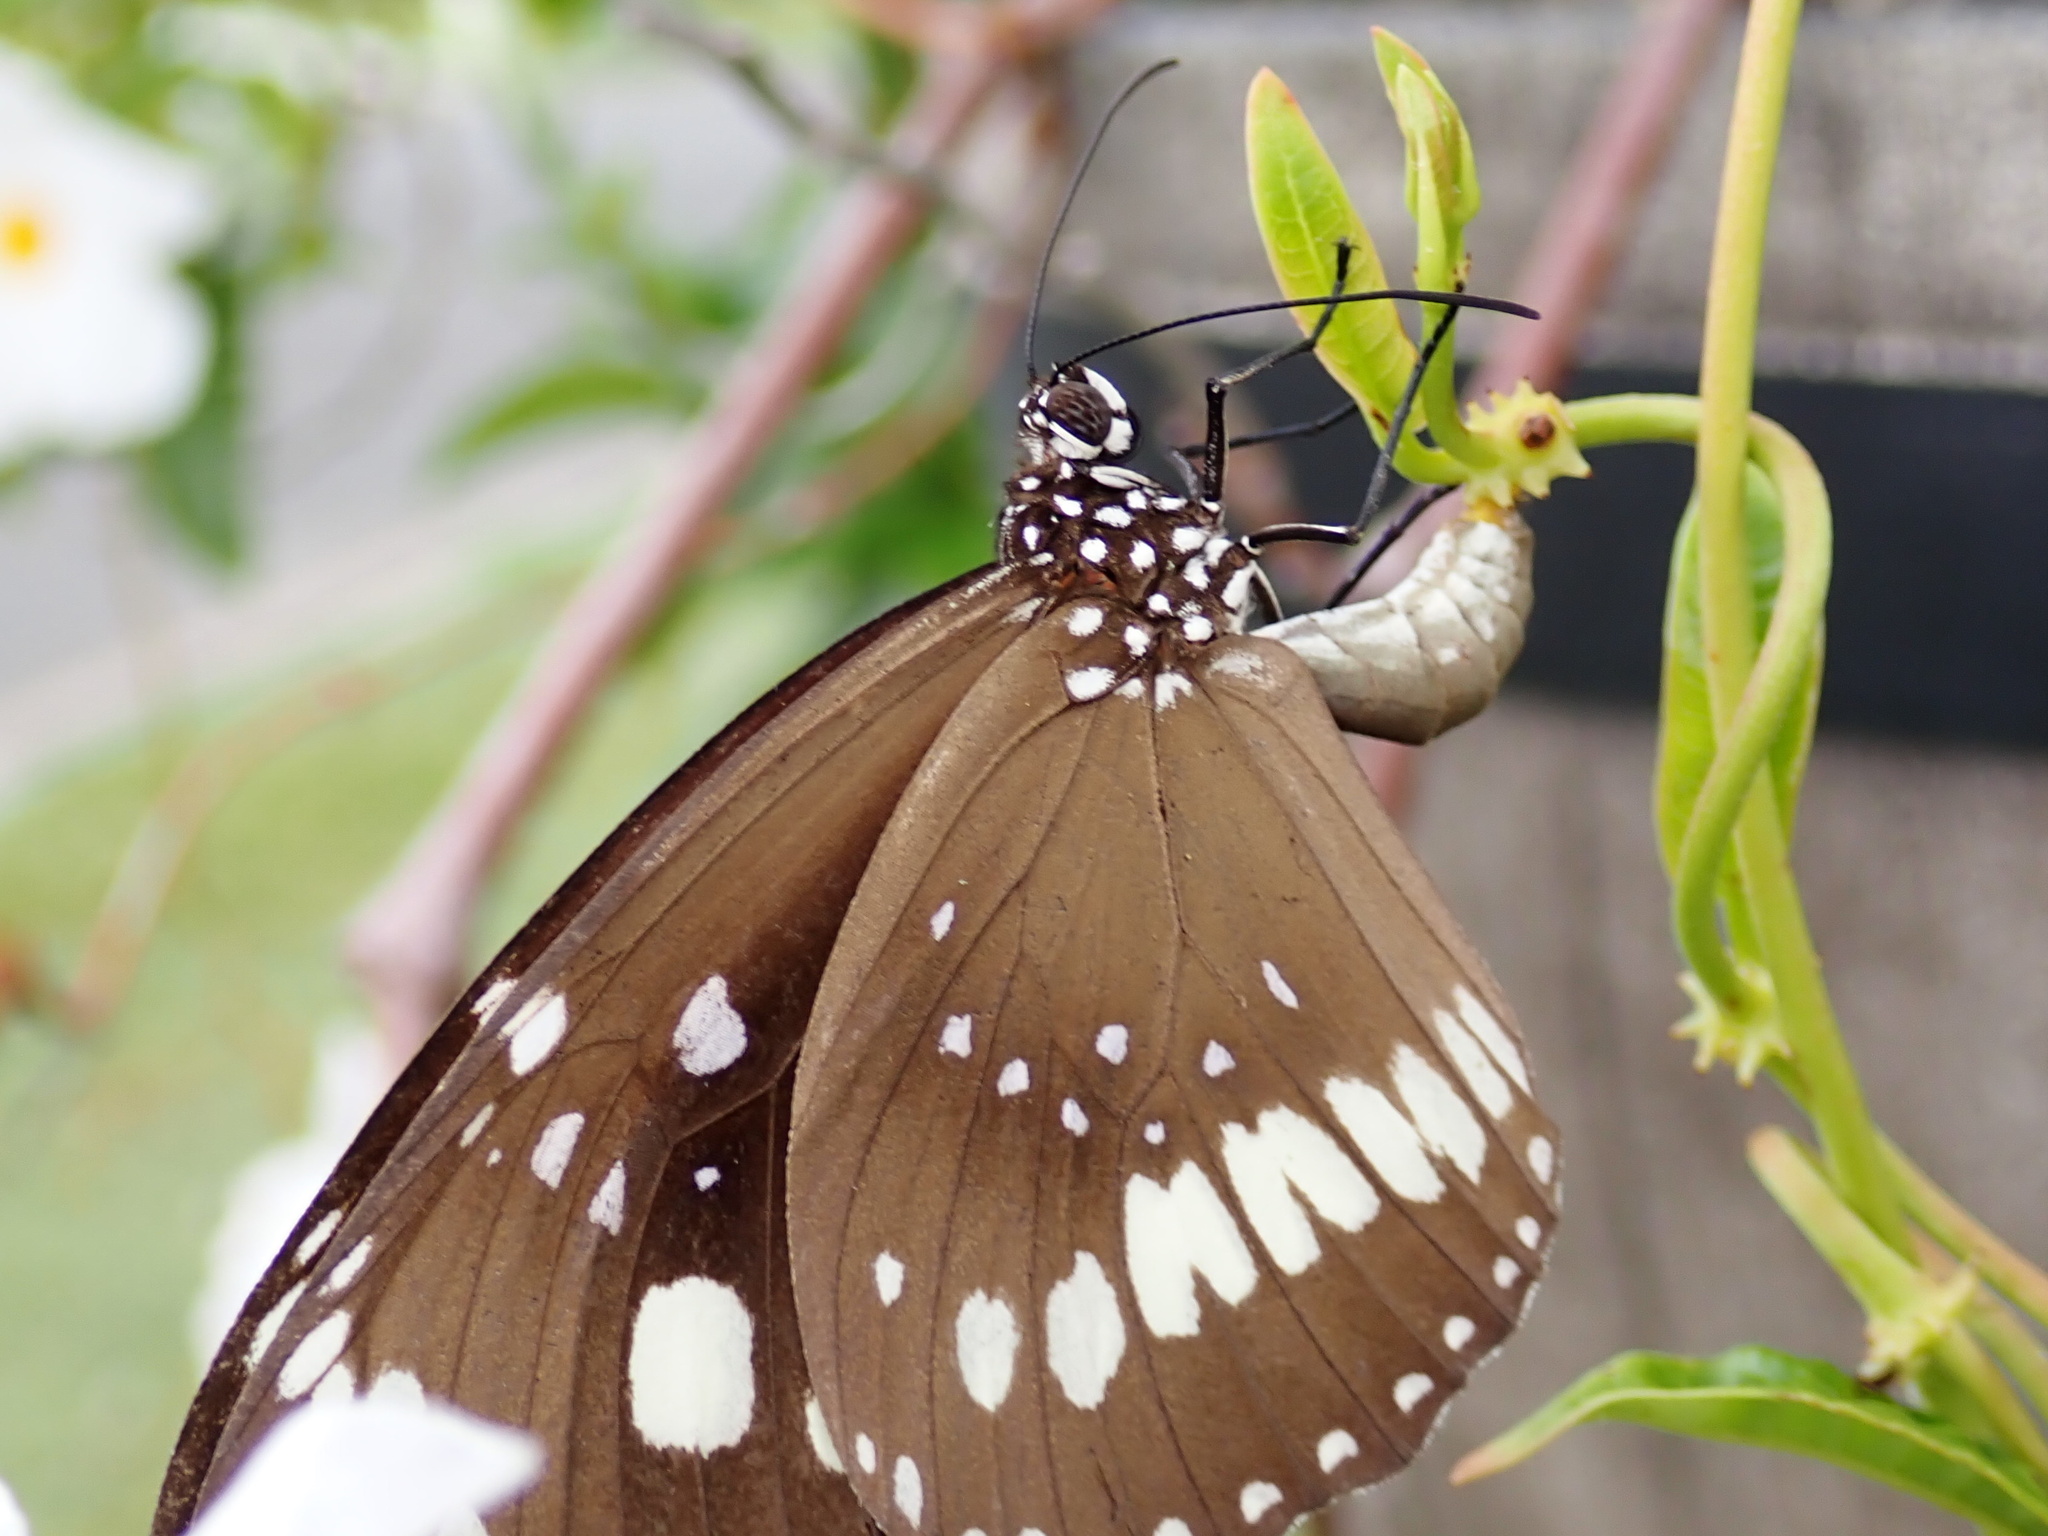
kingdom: Animalia
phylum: Arthropoda
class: Insecta
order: Lepidoptera
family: Nymphalidae
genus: Euploea
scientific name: Euploea core
